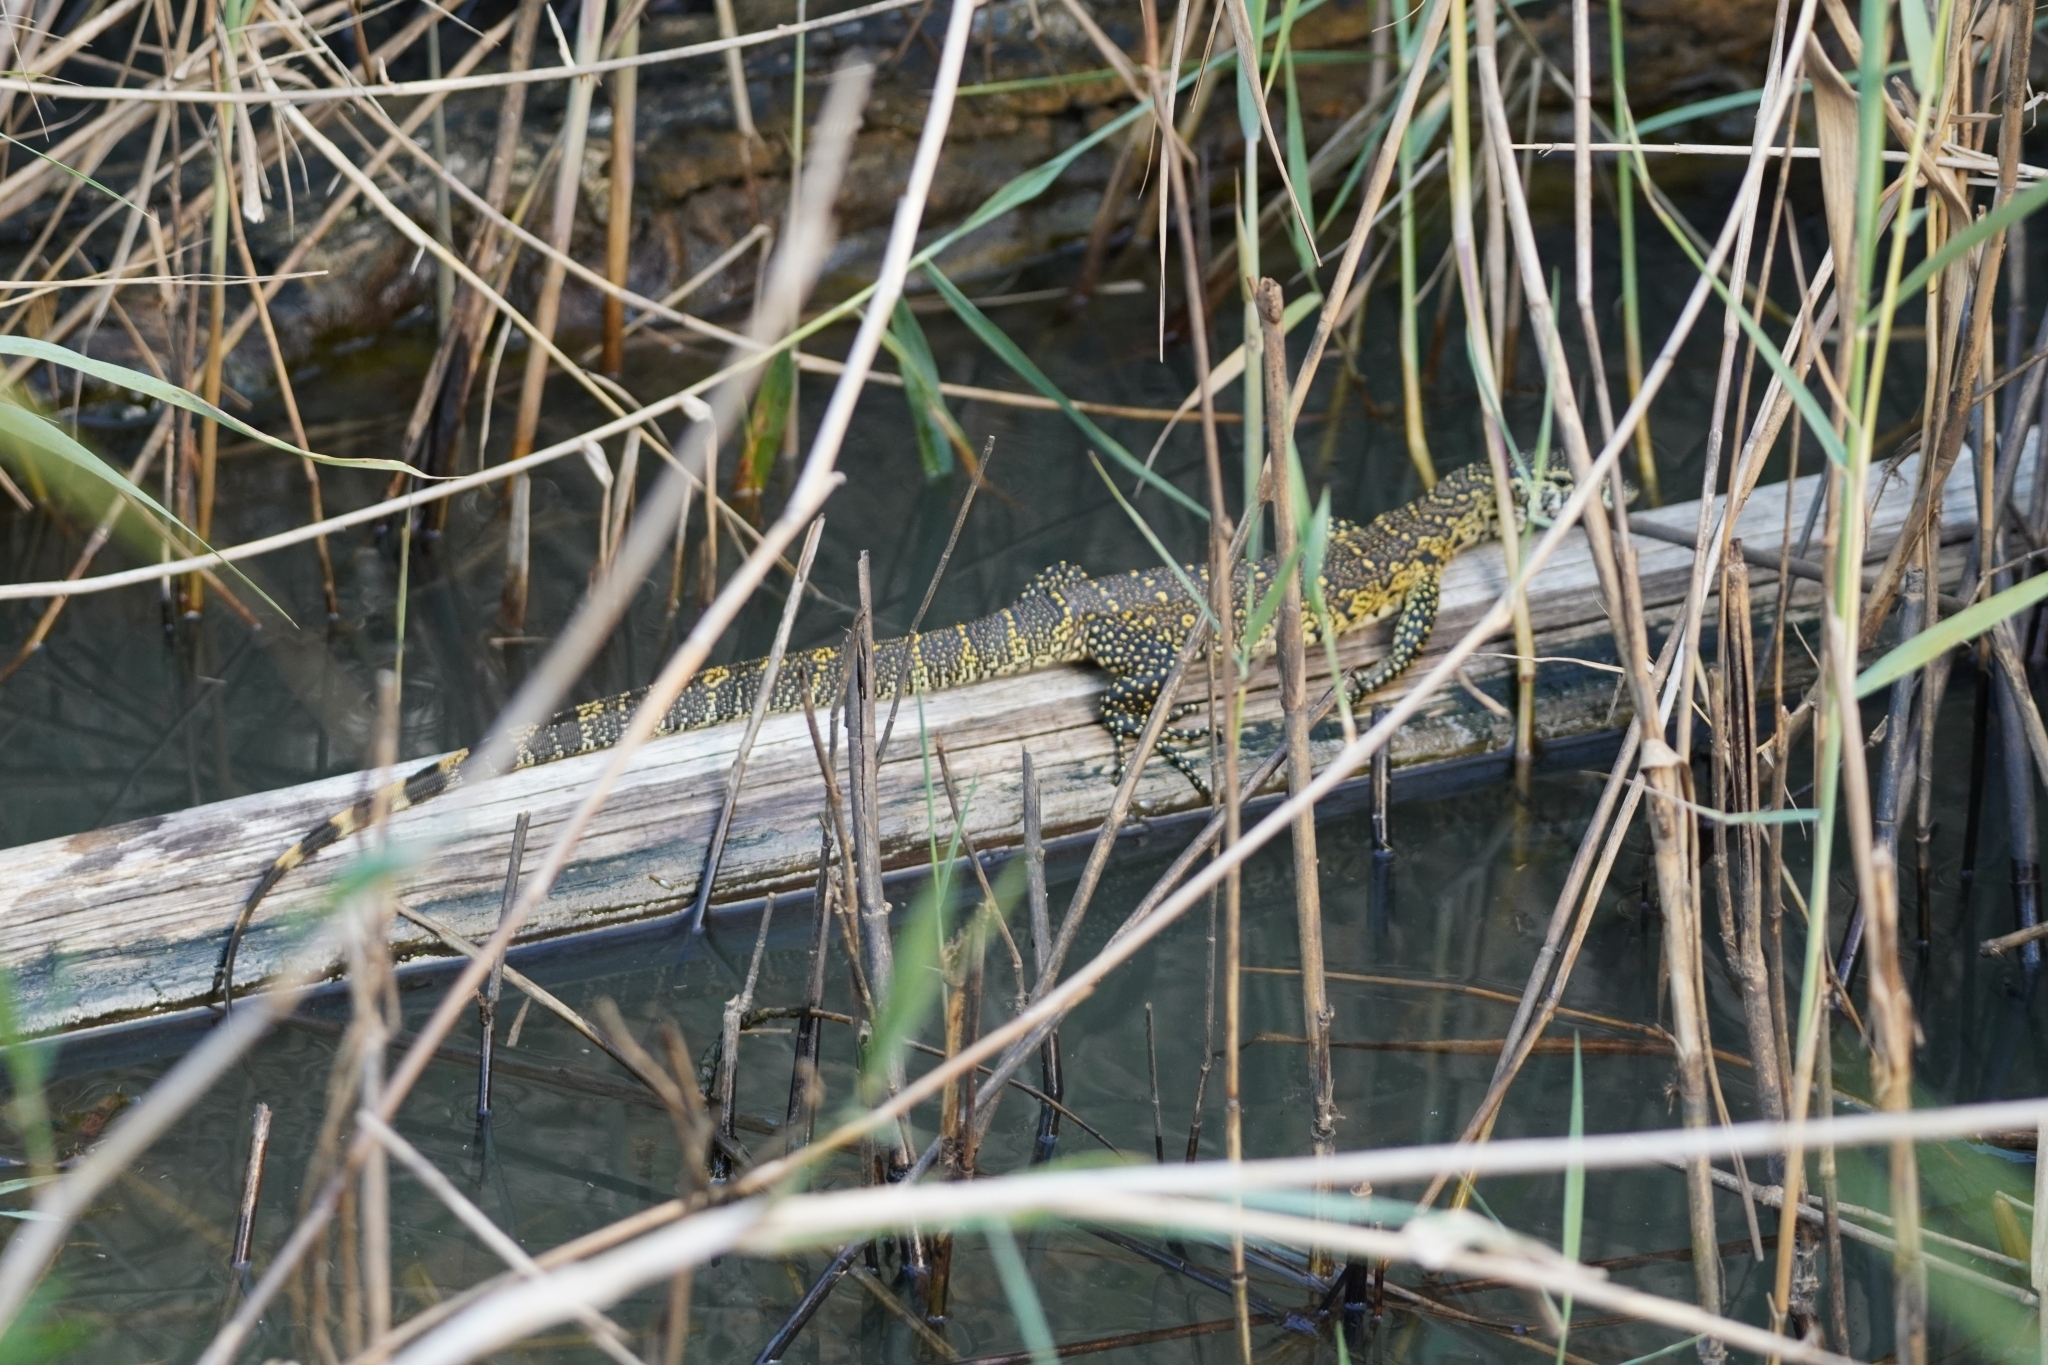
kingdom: Animalia
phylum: Chordata
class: Squamata
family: Varanidae
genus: Varanus
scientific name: Varanus niloticus
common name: Nile monitor
